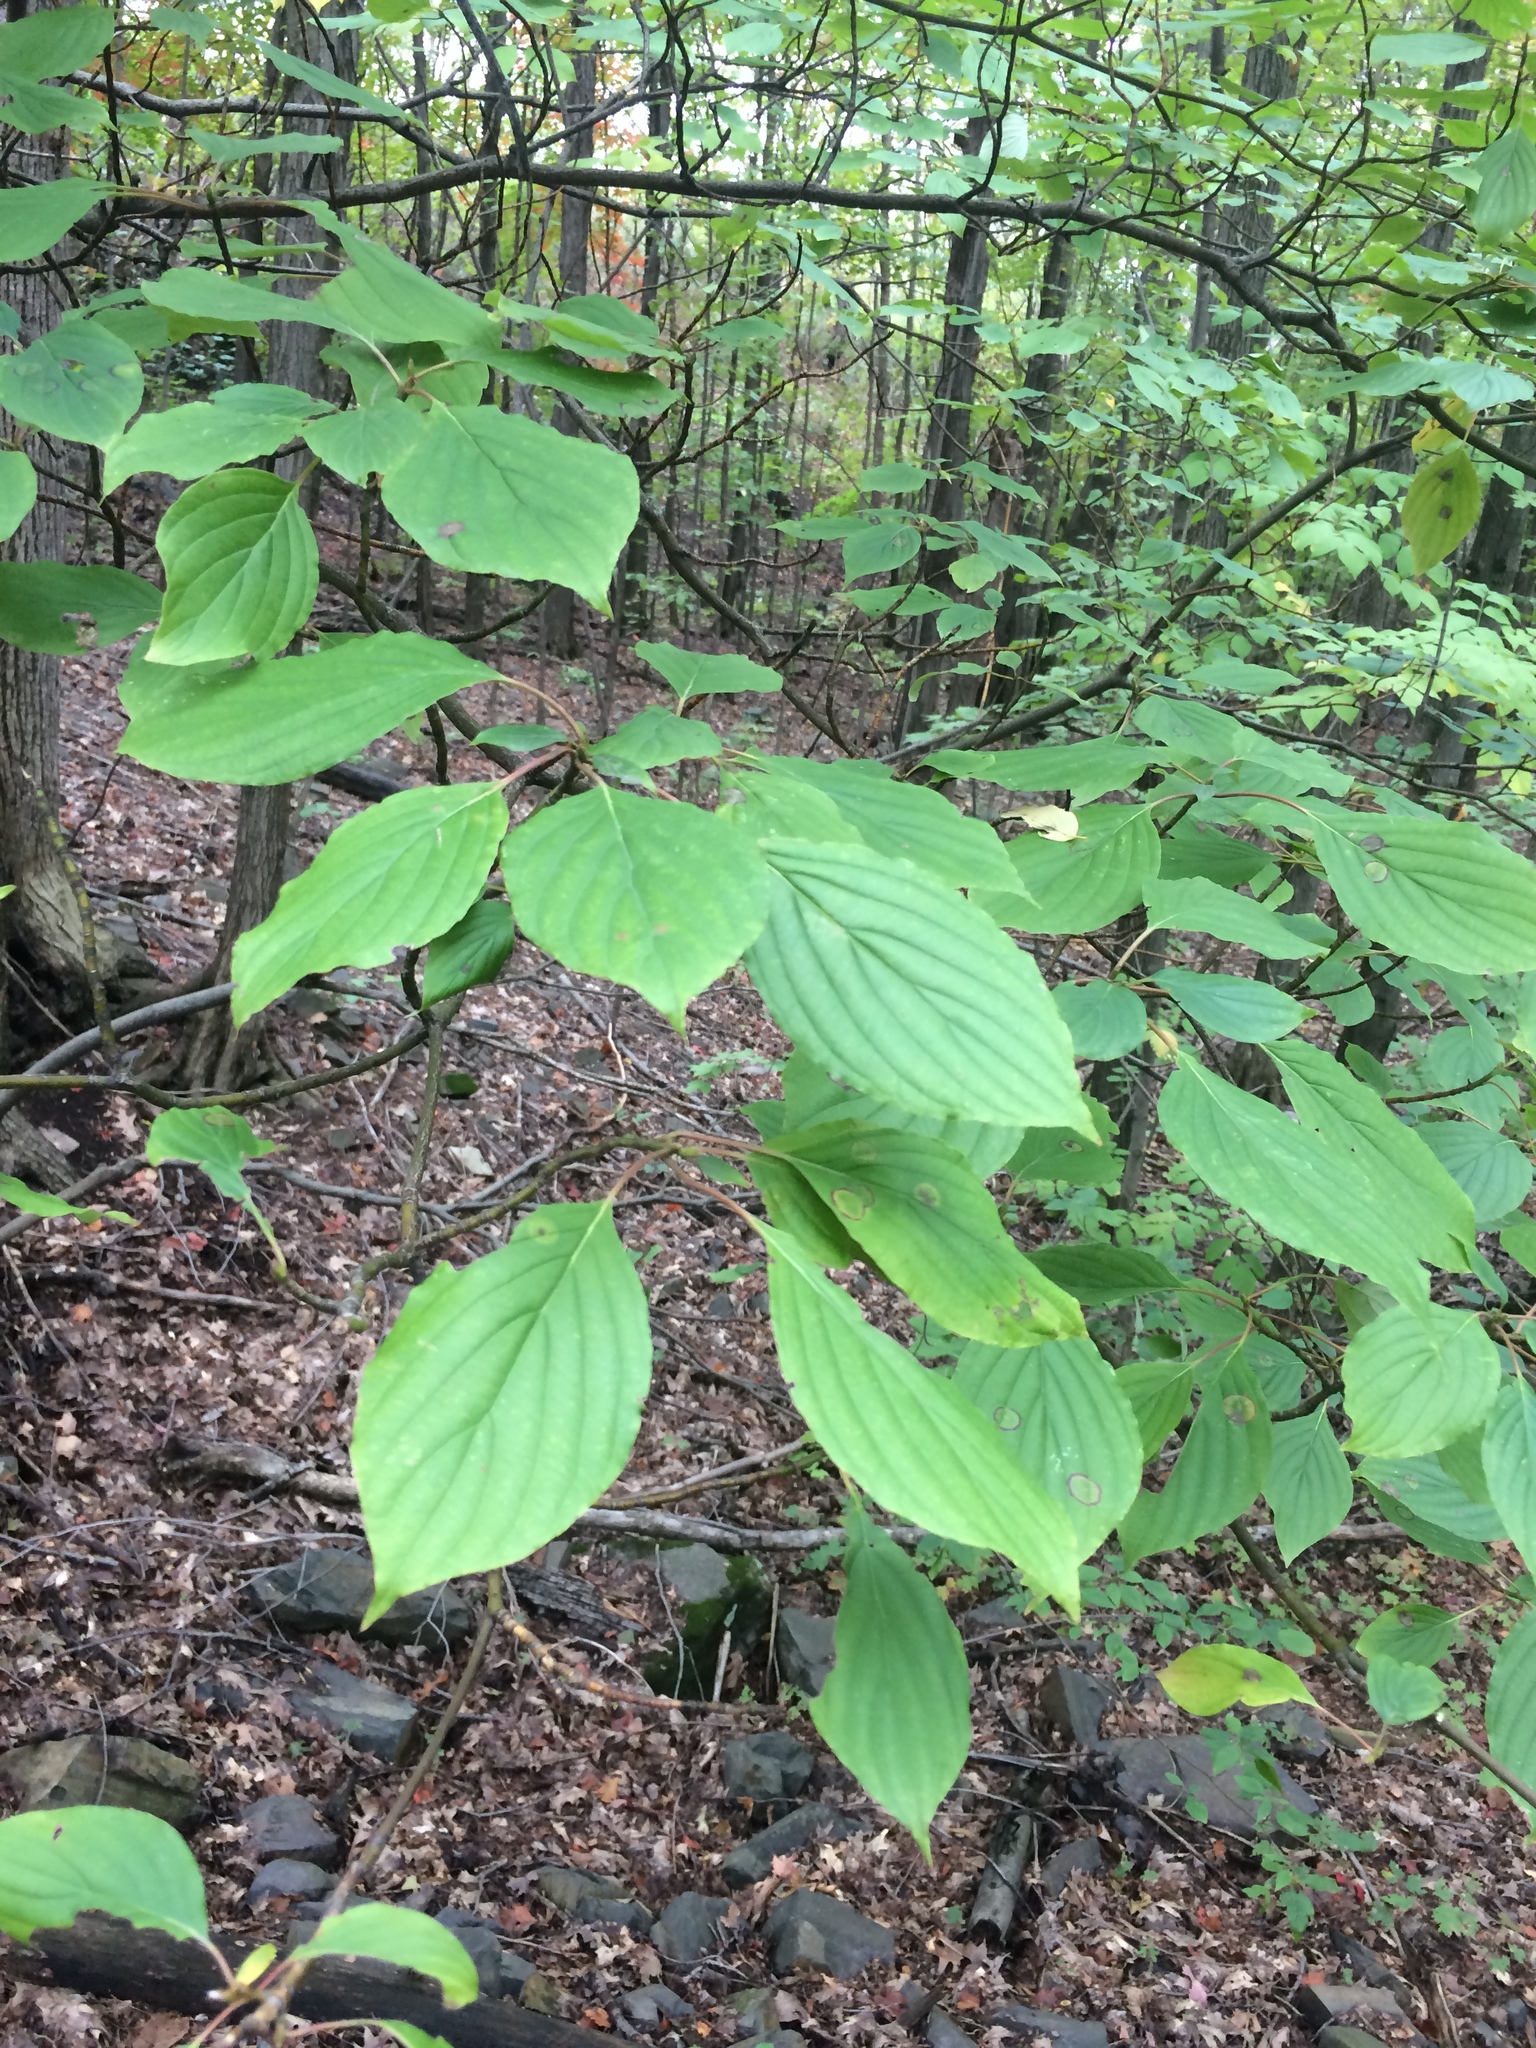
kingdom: Plantae
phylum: Tracheophyta
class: Magnoliopsida
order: Cornales
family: Cornaceae
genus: Cornus
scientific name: Cornus alternifolia
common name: Pagoda dogwood
